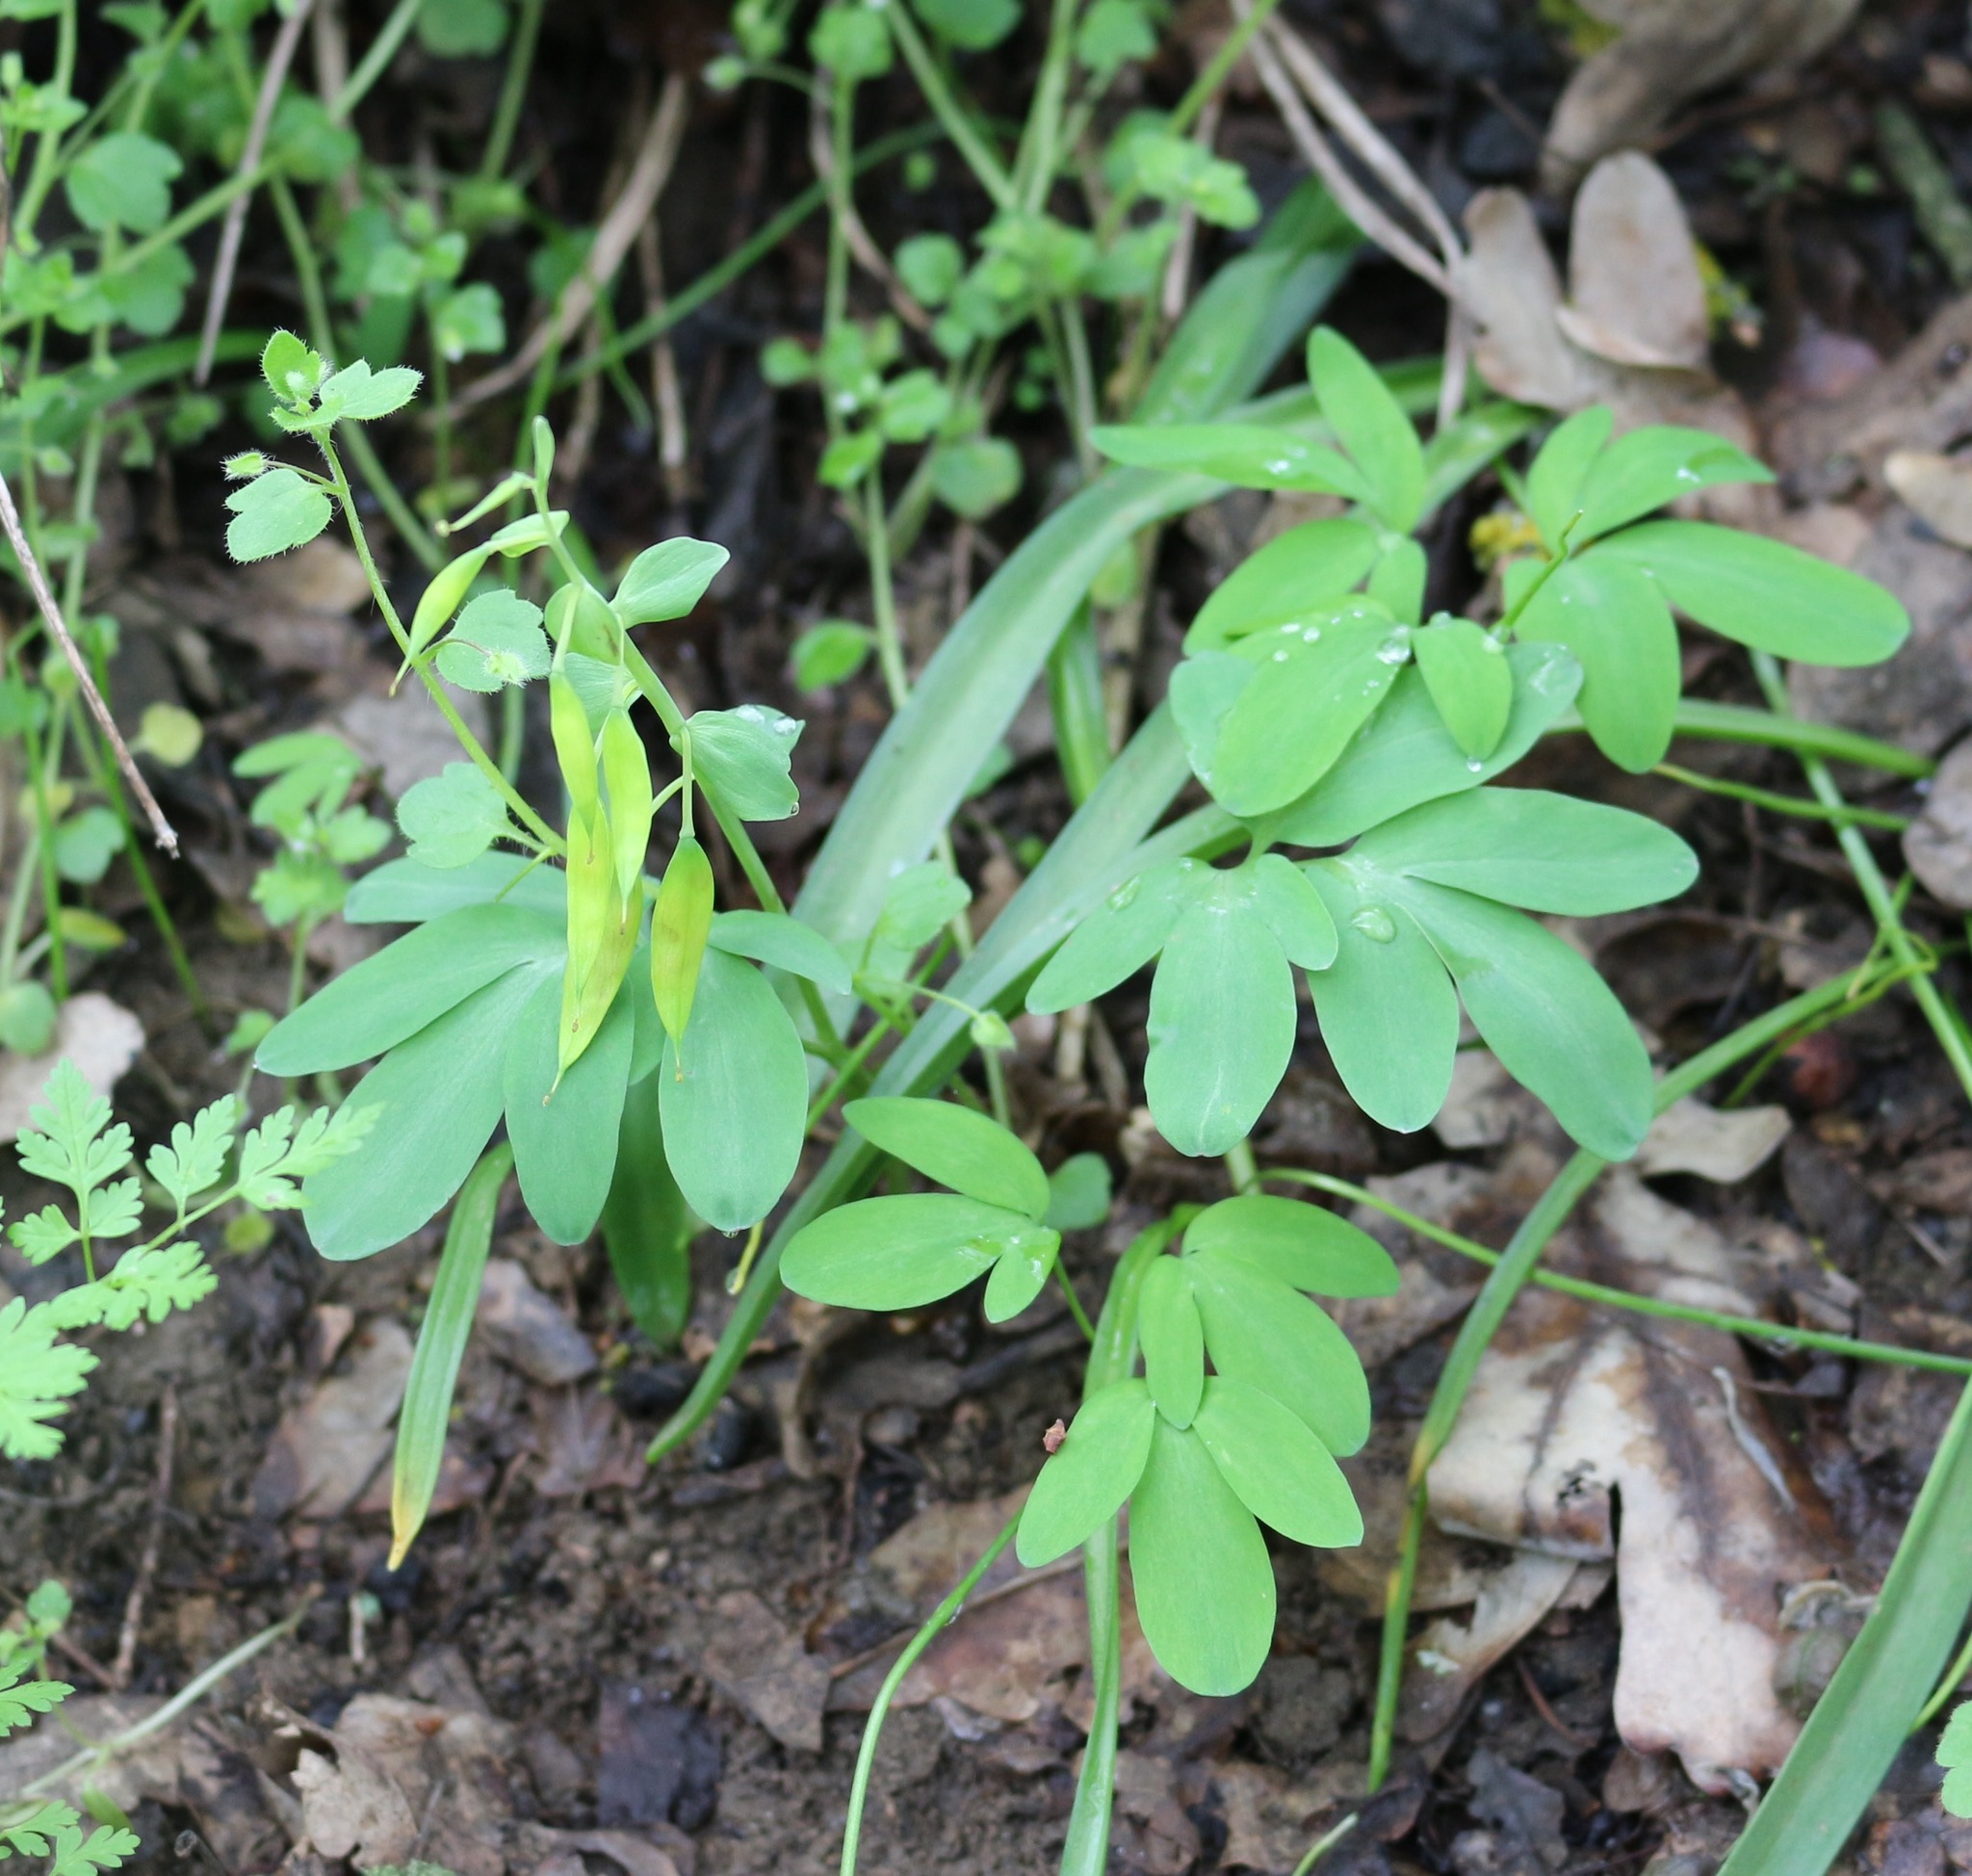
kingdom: Plantae
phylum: Tracheophyta
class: Magnoliopsida
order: Ranunculales
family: Papaveraceae
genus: Corydalis
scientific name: Corydalis cava
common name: Hollowroot
